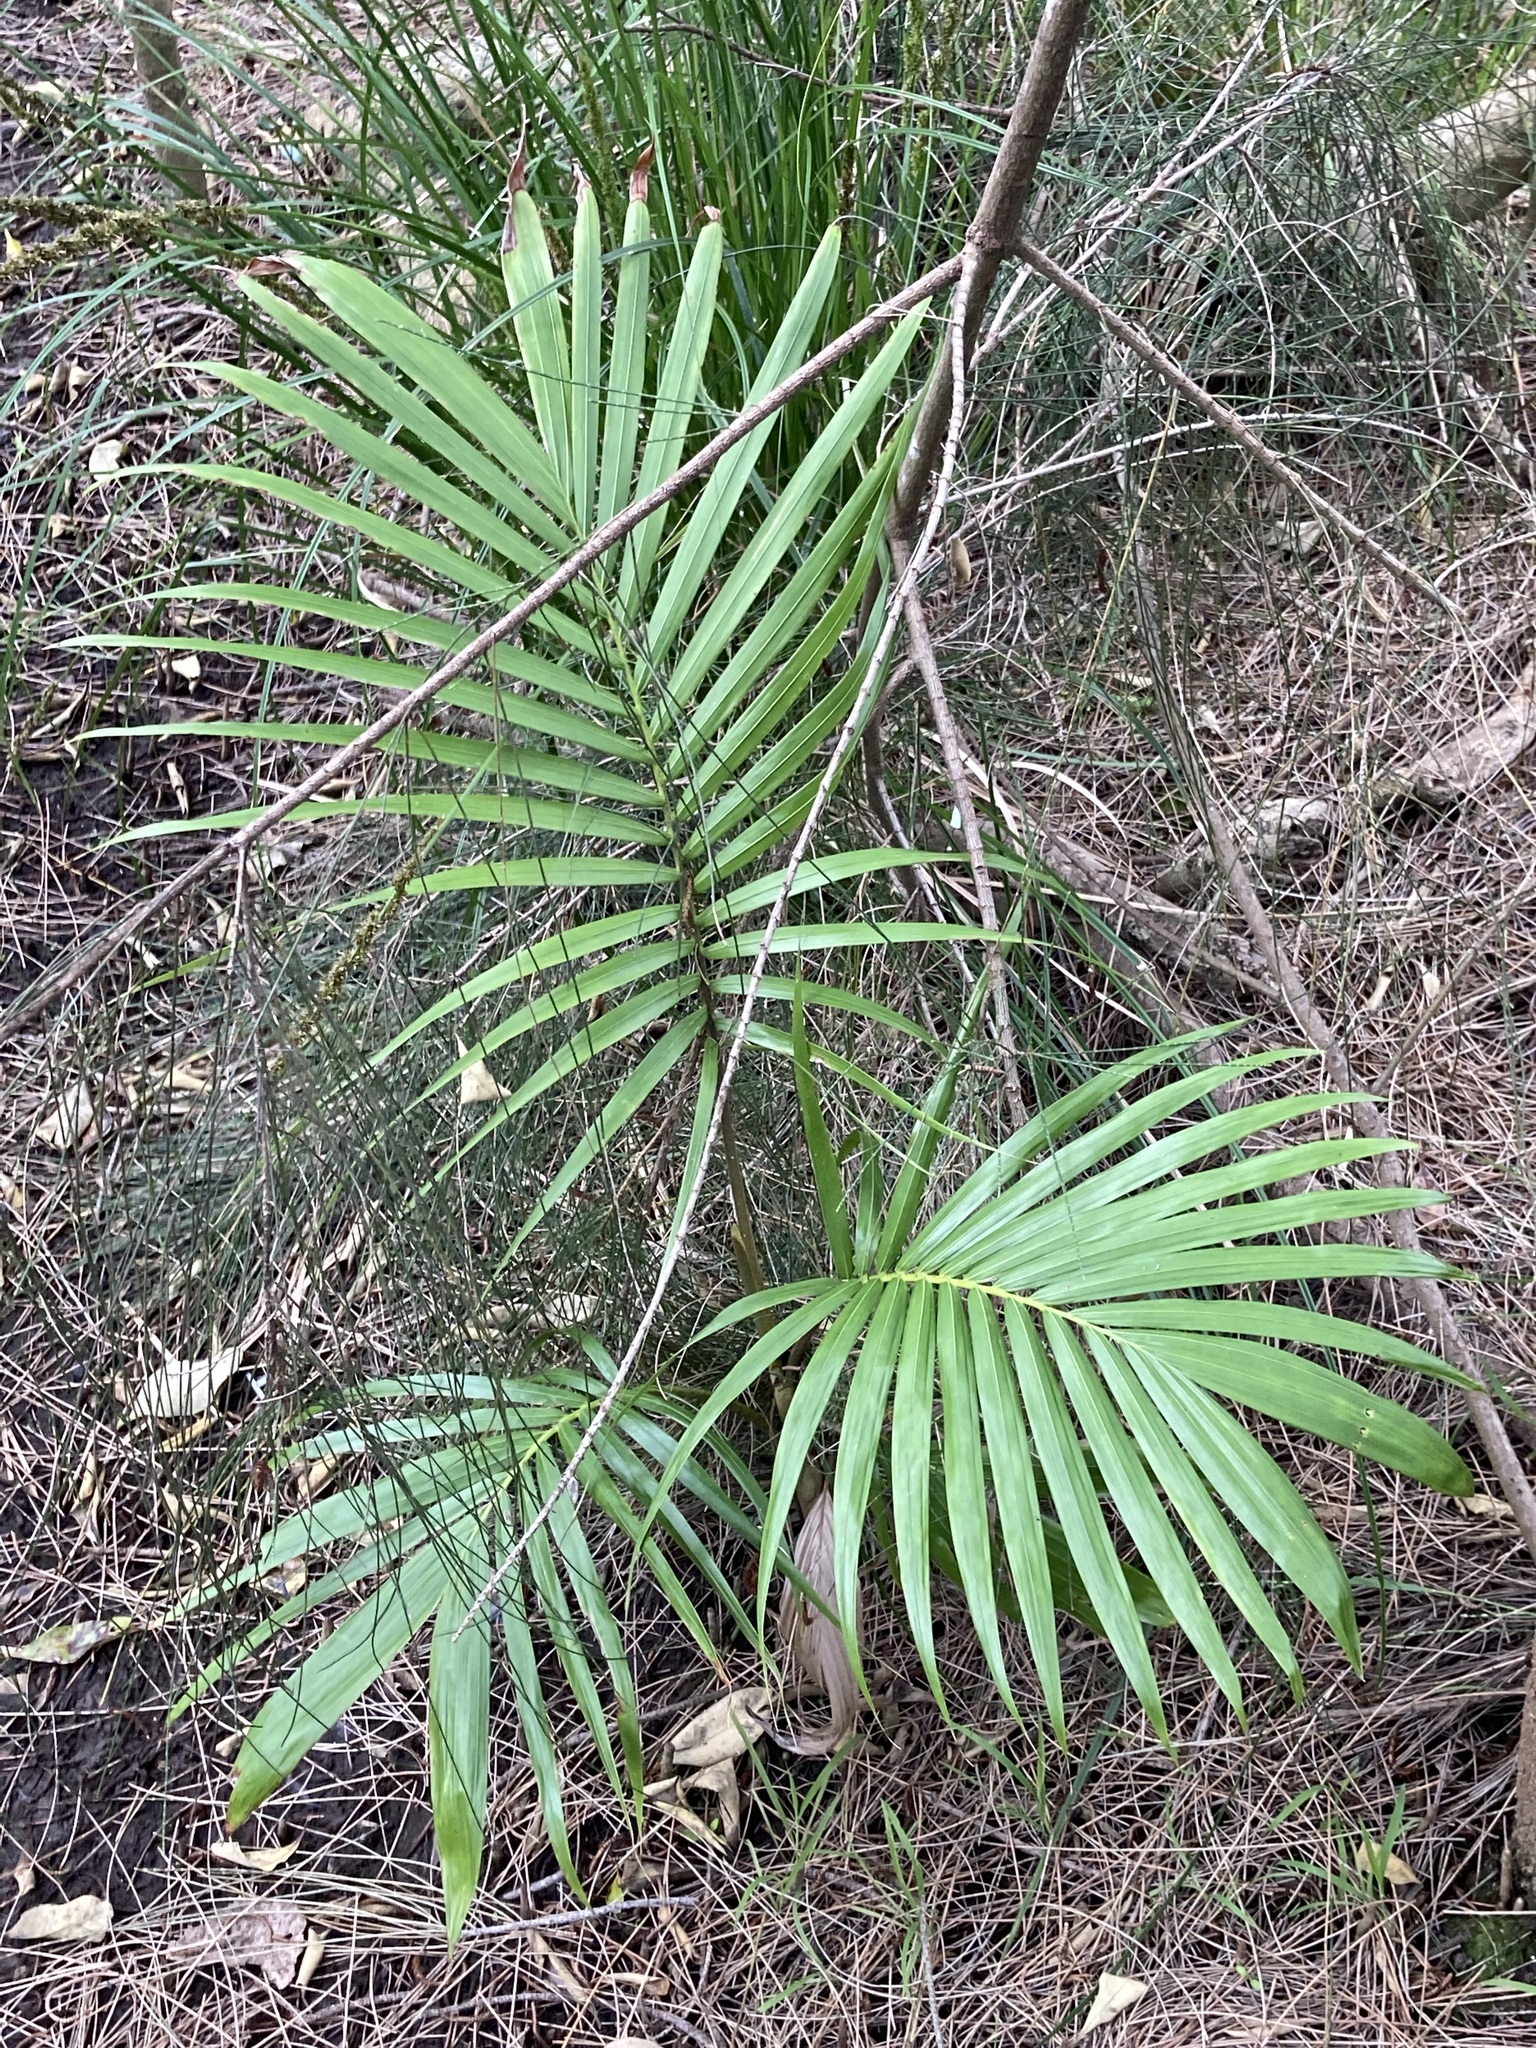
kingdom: Plantae
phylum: Tracheophyta
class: Liliopsida
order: Arecales
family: Arecaceae
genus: Archontophoenix
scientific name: Archontophoenix cunninghamiana
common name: Piccabeen bangalow palm
